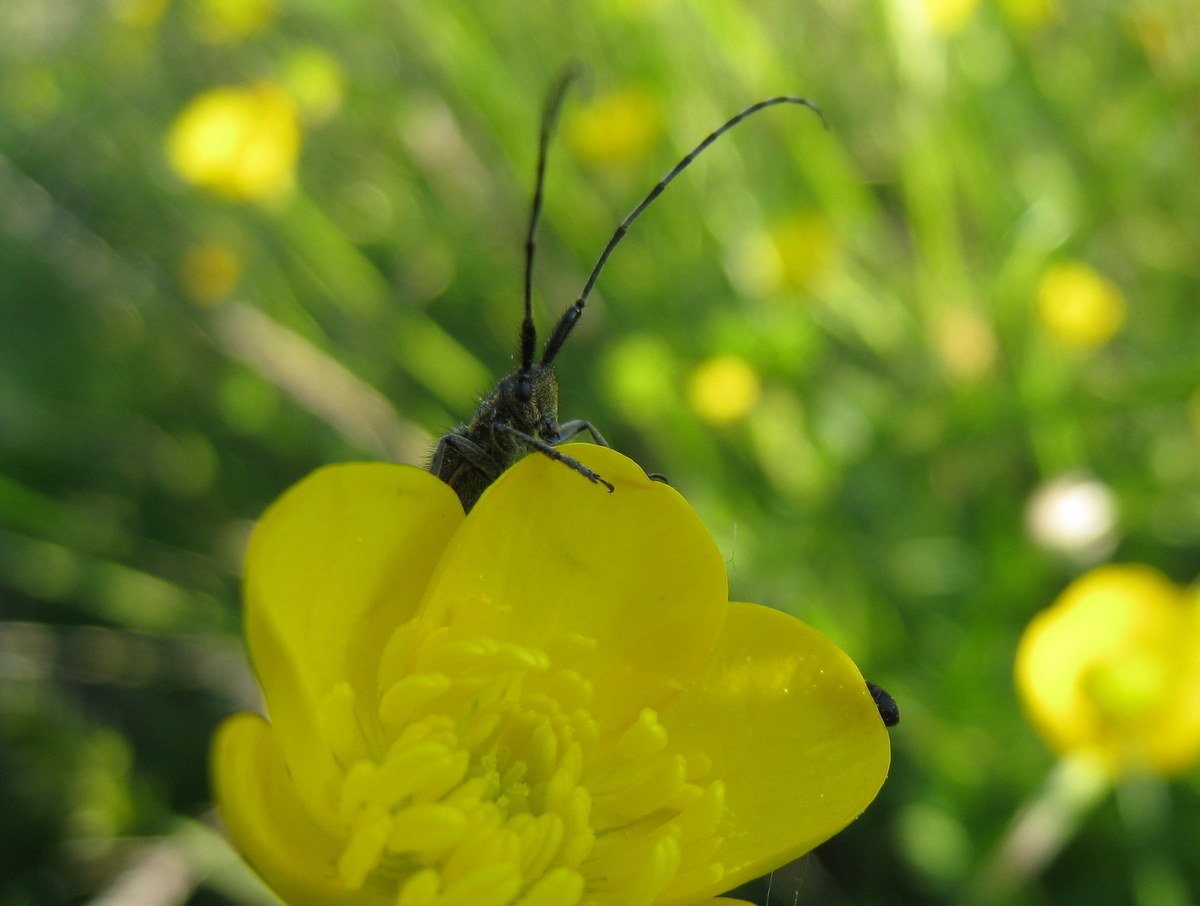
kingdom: Animalia
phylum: Arthropoda
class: Insecta
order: Coleoptera
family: Cerambycidae
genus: Agapanthia
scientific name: Agapanthia cardui
